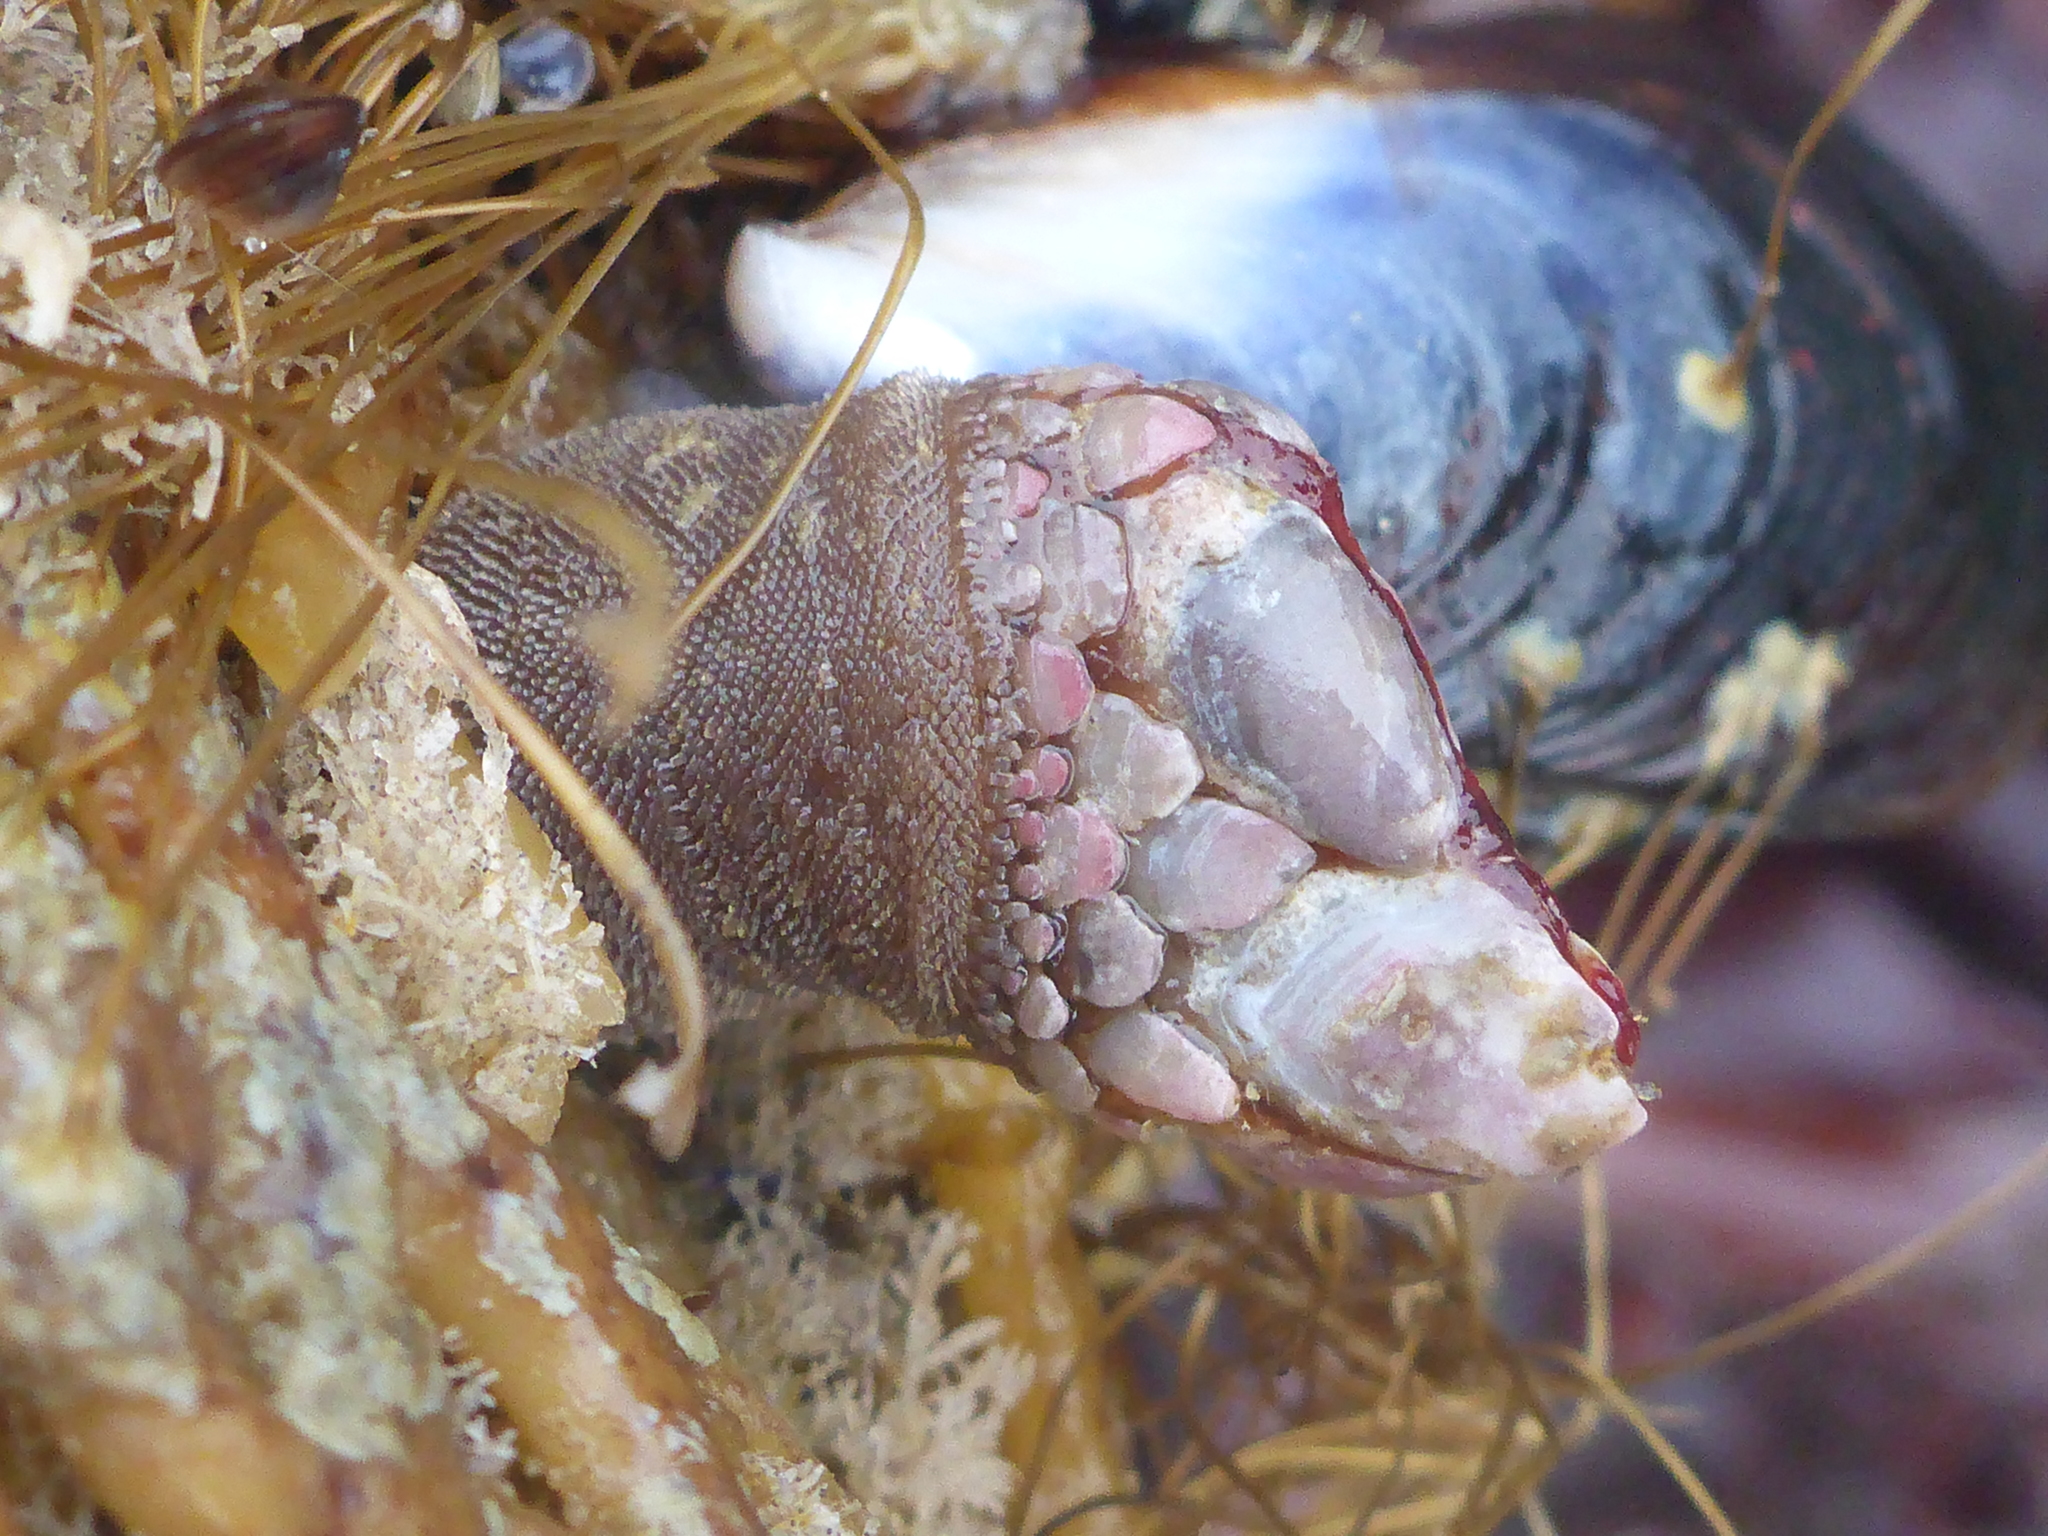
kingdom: Animalia
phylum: Arthropoda
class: Maxillopoda
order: Pedunculata
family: Pollicipedidae
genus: Pollicipes
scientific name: Pollicipes polymerus
